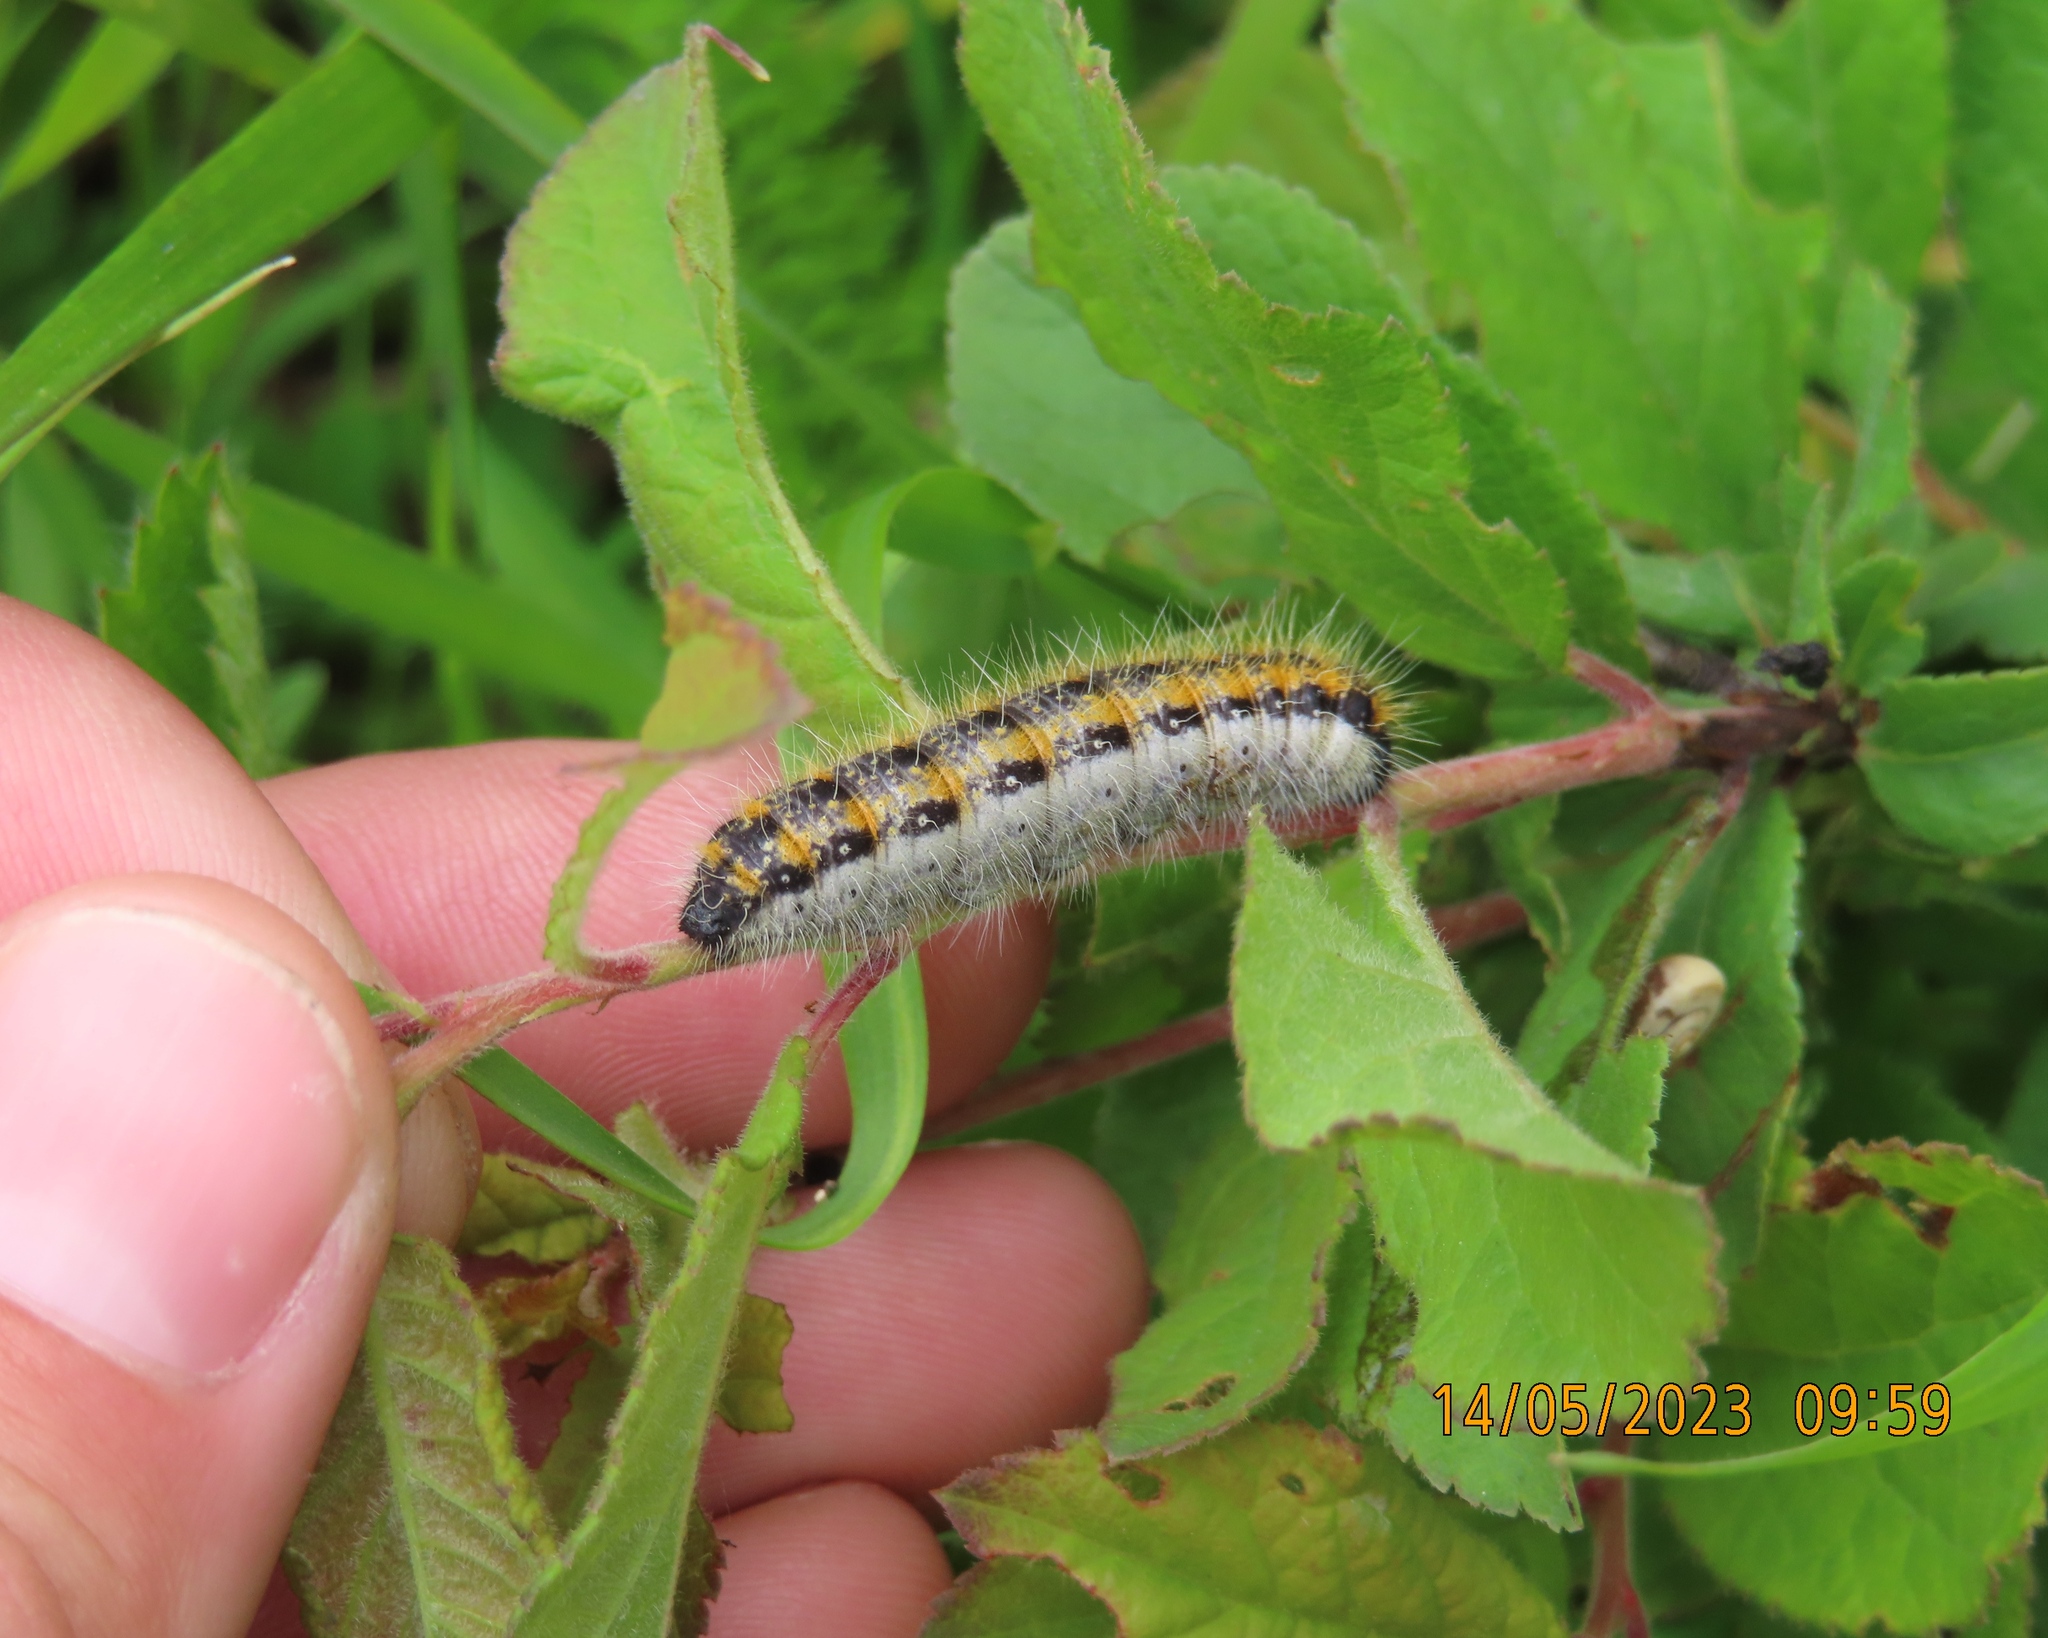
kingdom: Animalia
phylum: Arthropoda
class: Insecta
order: Lepidoptera
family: Pieridae
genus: Aporia
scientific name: Aporia crataegi
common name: Black-veined white
